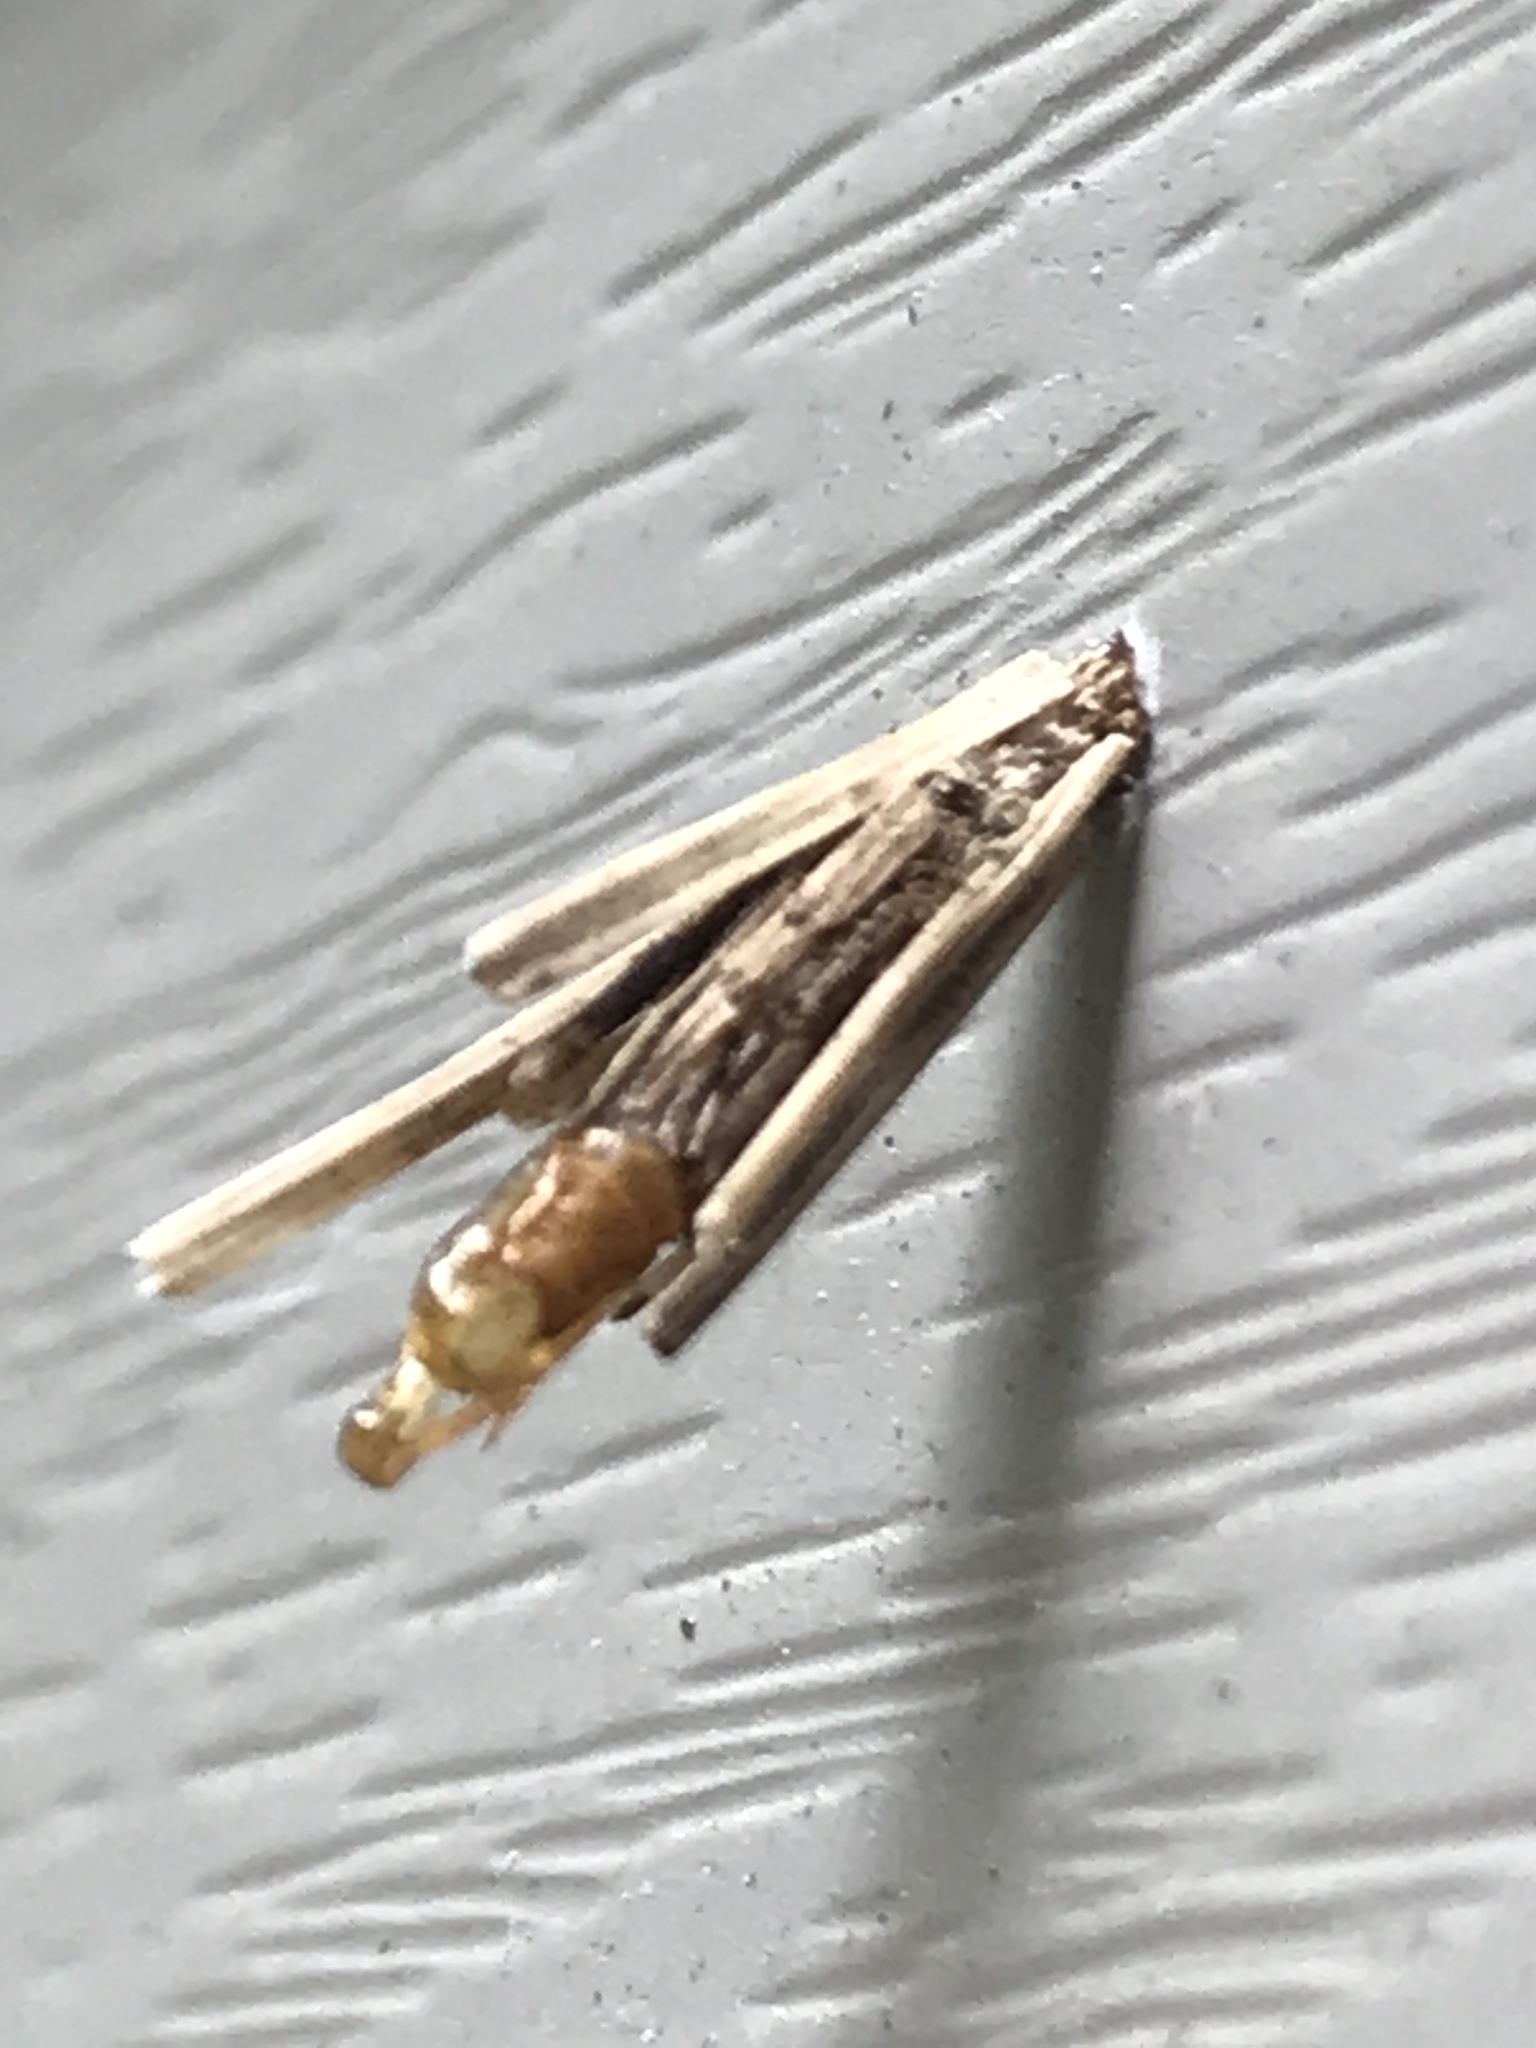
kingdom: Animalia
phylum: Arthropoda
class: Insecta
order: Lepidoptera
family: Psychidae
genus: Psyche
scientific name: Psyche casta
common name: Common sweep
